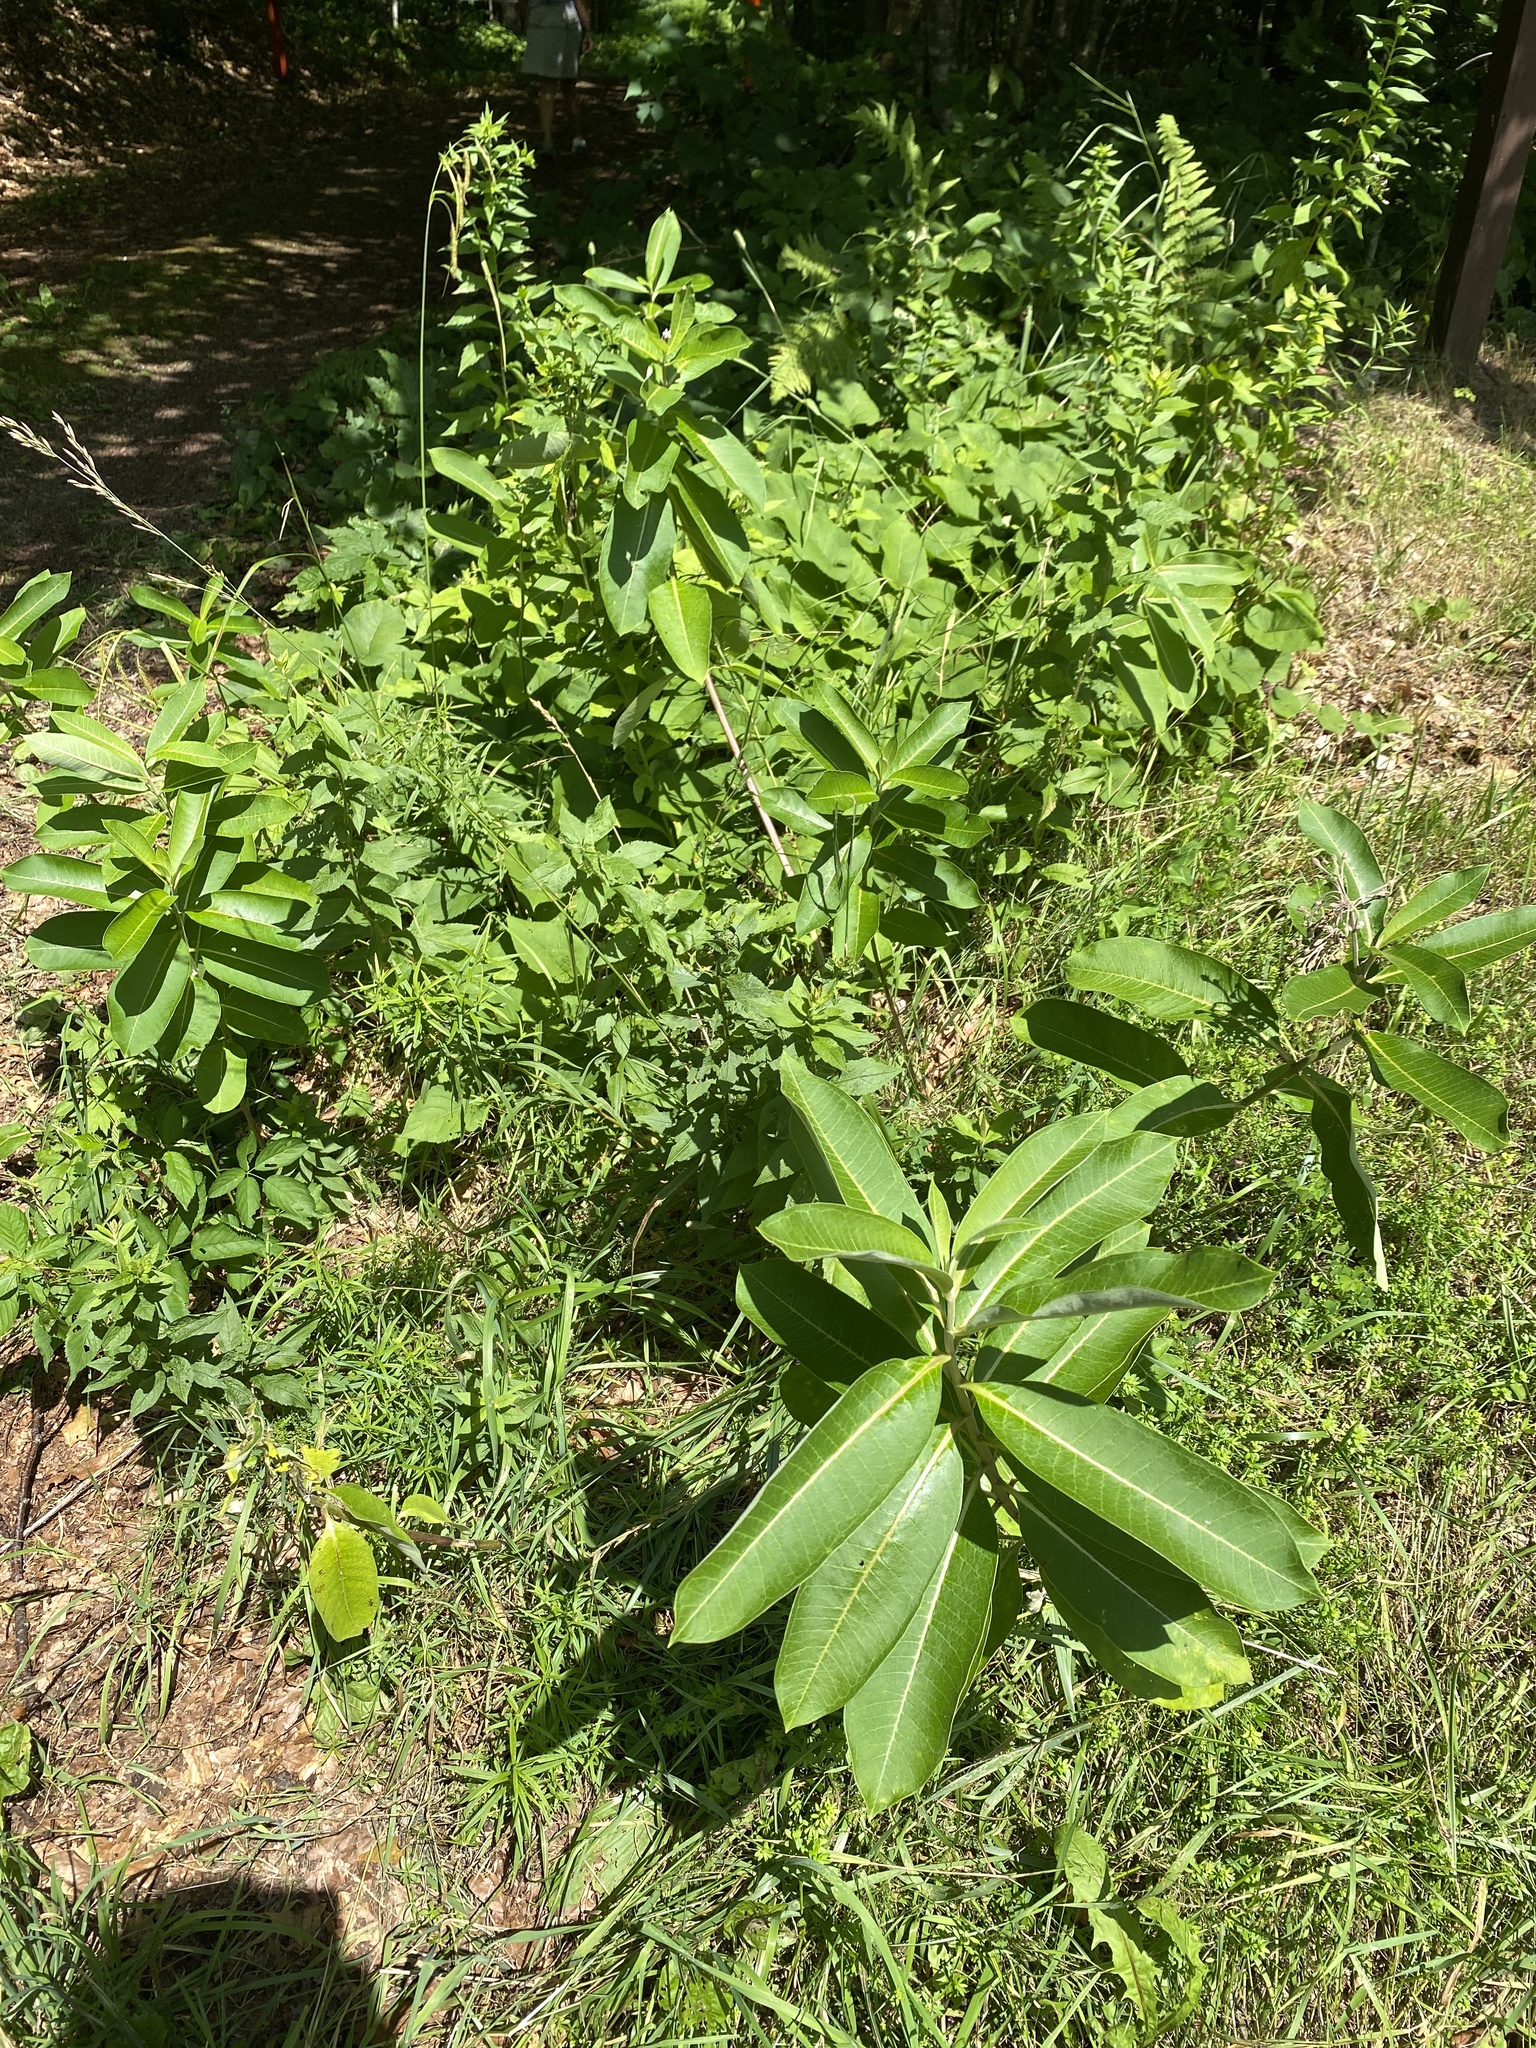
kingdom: Plantae
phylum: Tracheophyta
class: Magnoliopsida
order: Gentianales
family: Apocynaceae
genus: Asclepias
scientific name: Asclepias syriaca
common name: Common milkweed
